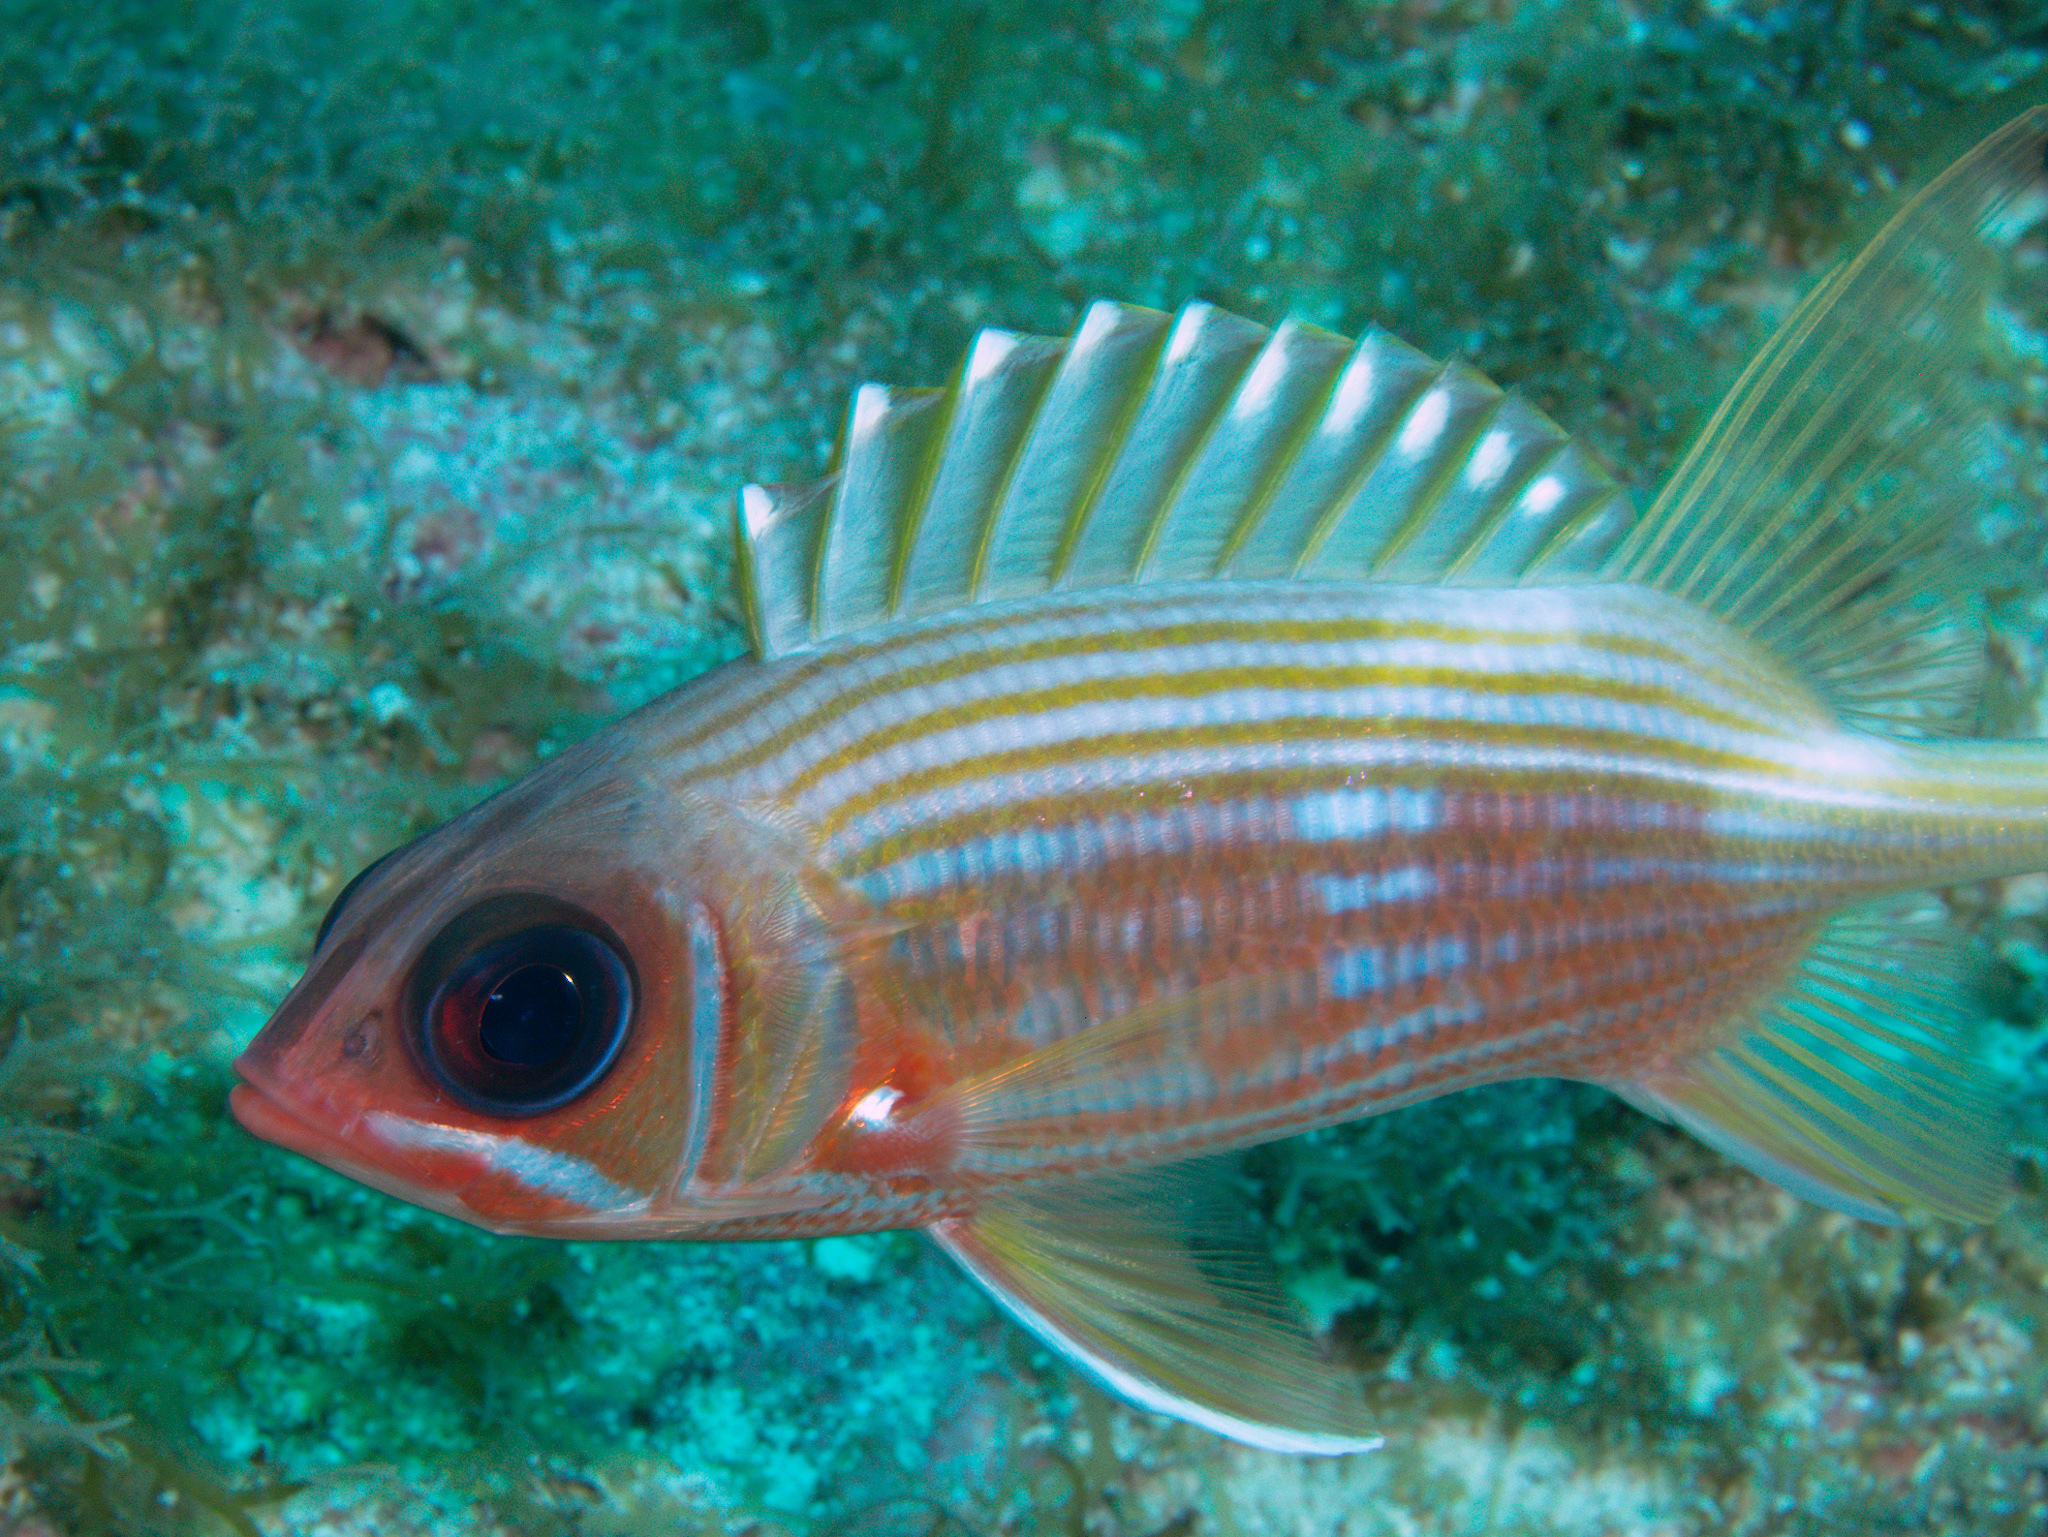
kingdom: Animalia
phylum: Chordata
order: Beryciformes
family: Holocentridae
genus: Holocentrus
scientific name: Holocentrus rufus
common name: Longspine squirrelfish
